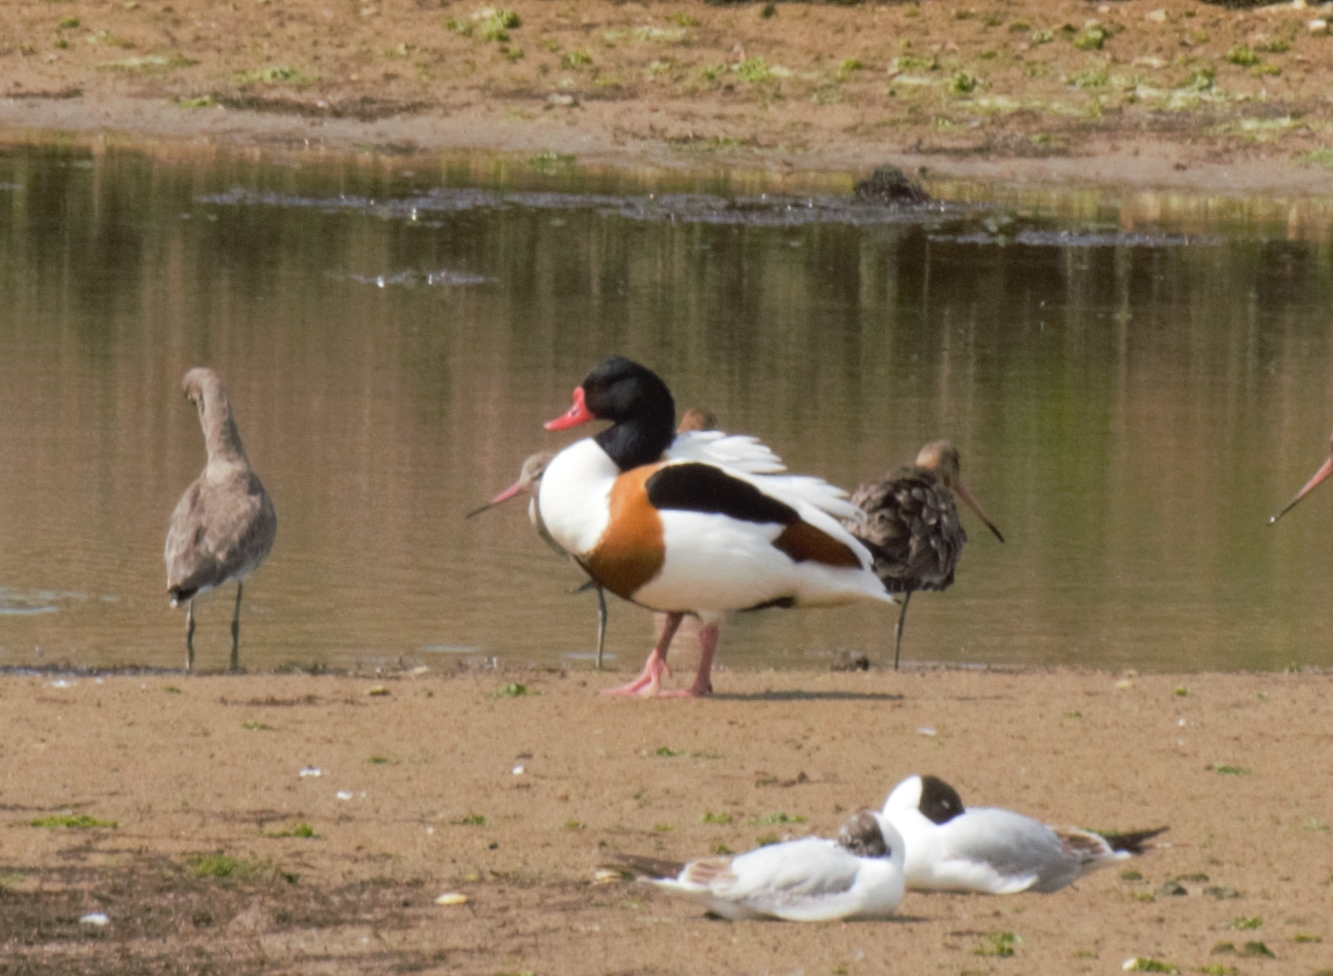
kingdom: Animalia
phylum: Chordata
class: Aves
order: Anseriformes
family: Anatidae
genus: Tadorna
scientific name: Tadorna tadorna
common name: Common shelduck
